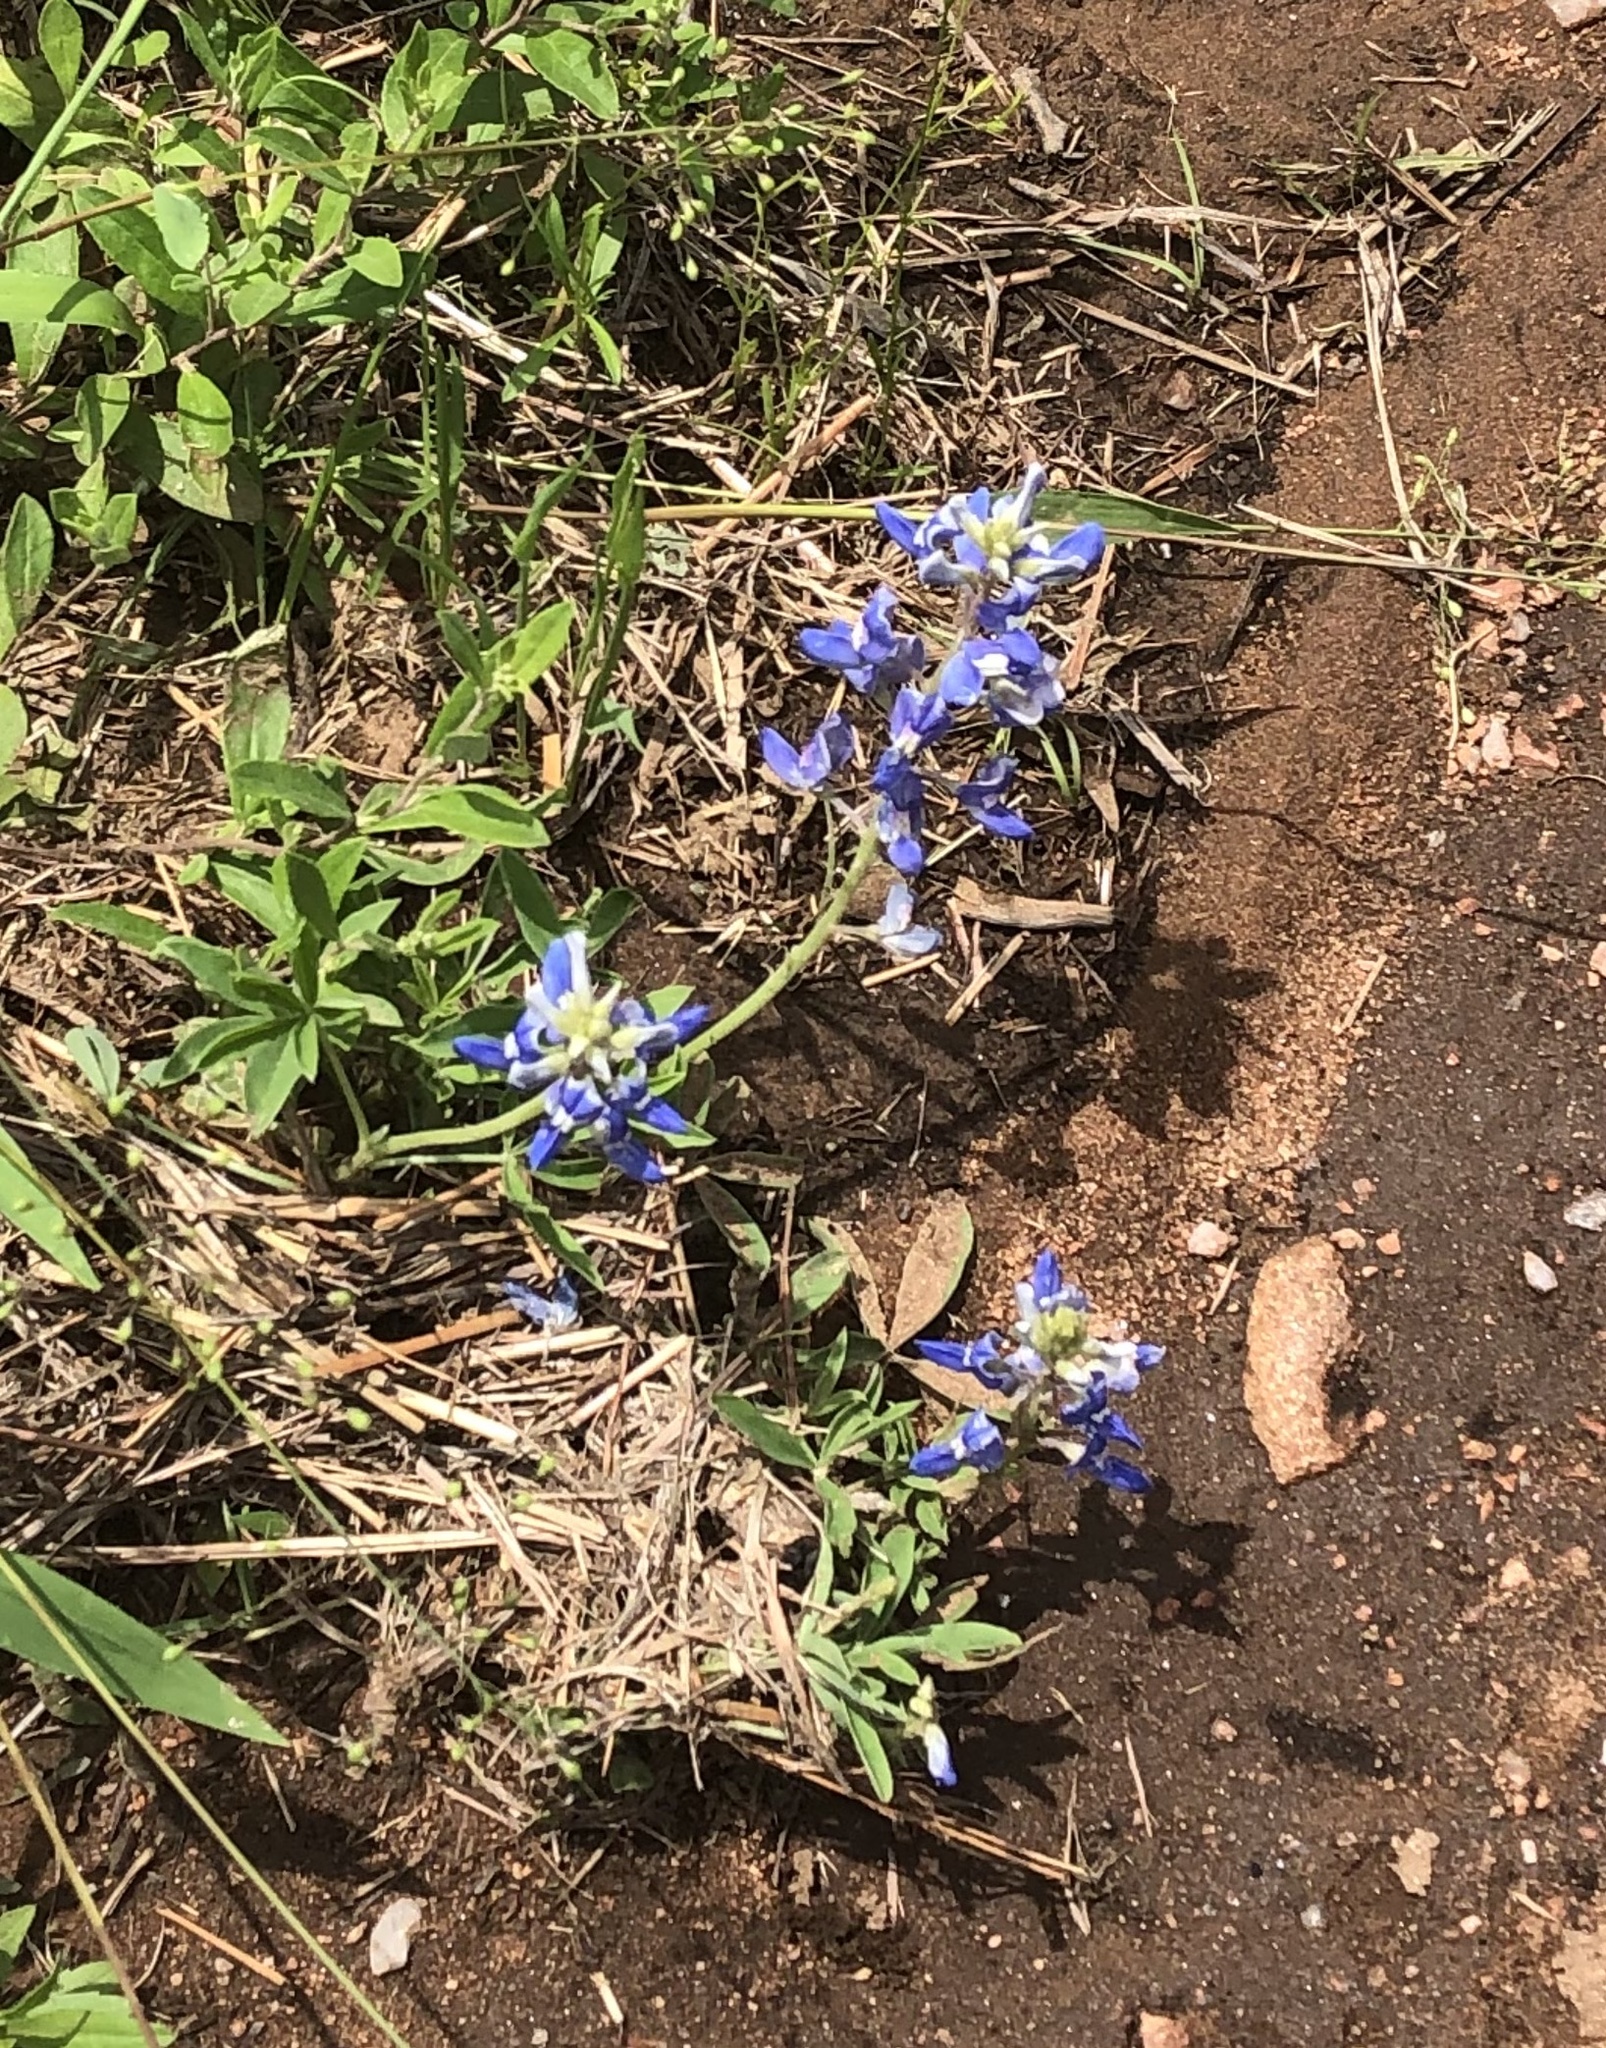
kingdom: Plantae
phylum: Tracheophyta
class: Magnoliopsida
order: Fabales
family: Fabaceae
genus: Lupinus
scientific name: Lupinus texensis
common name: Texas bluebonnet
